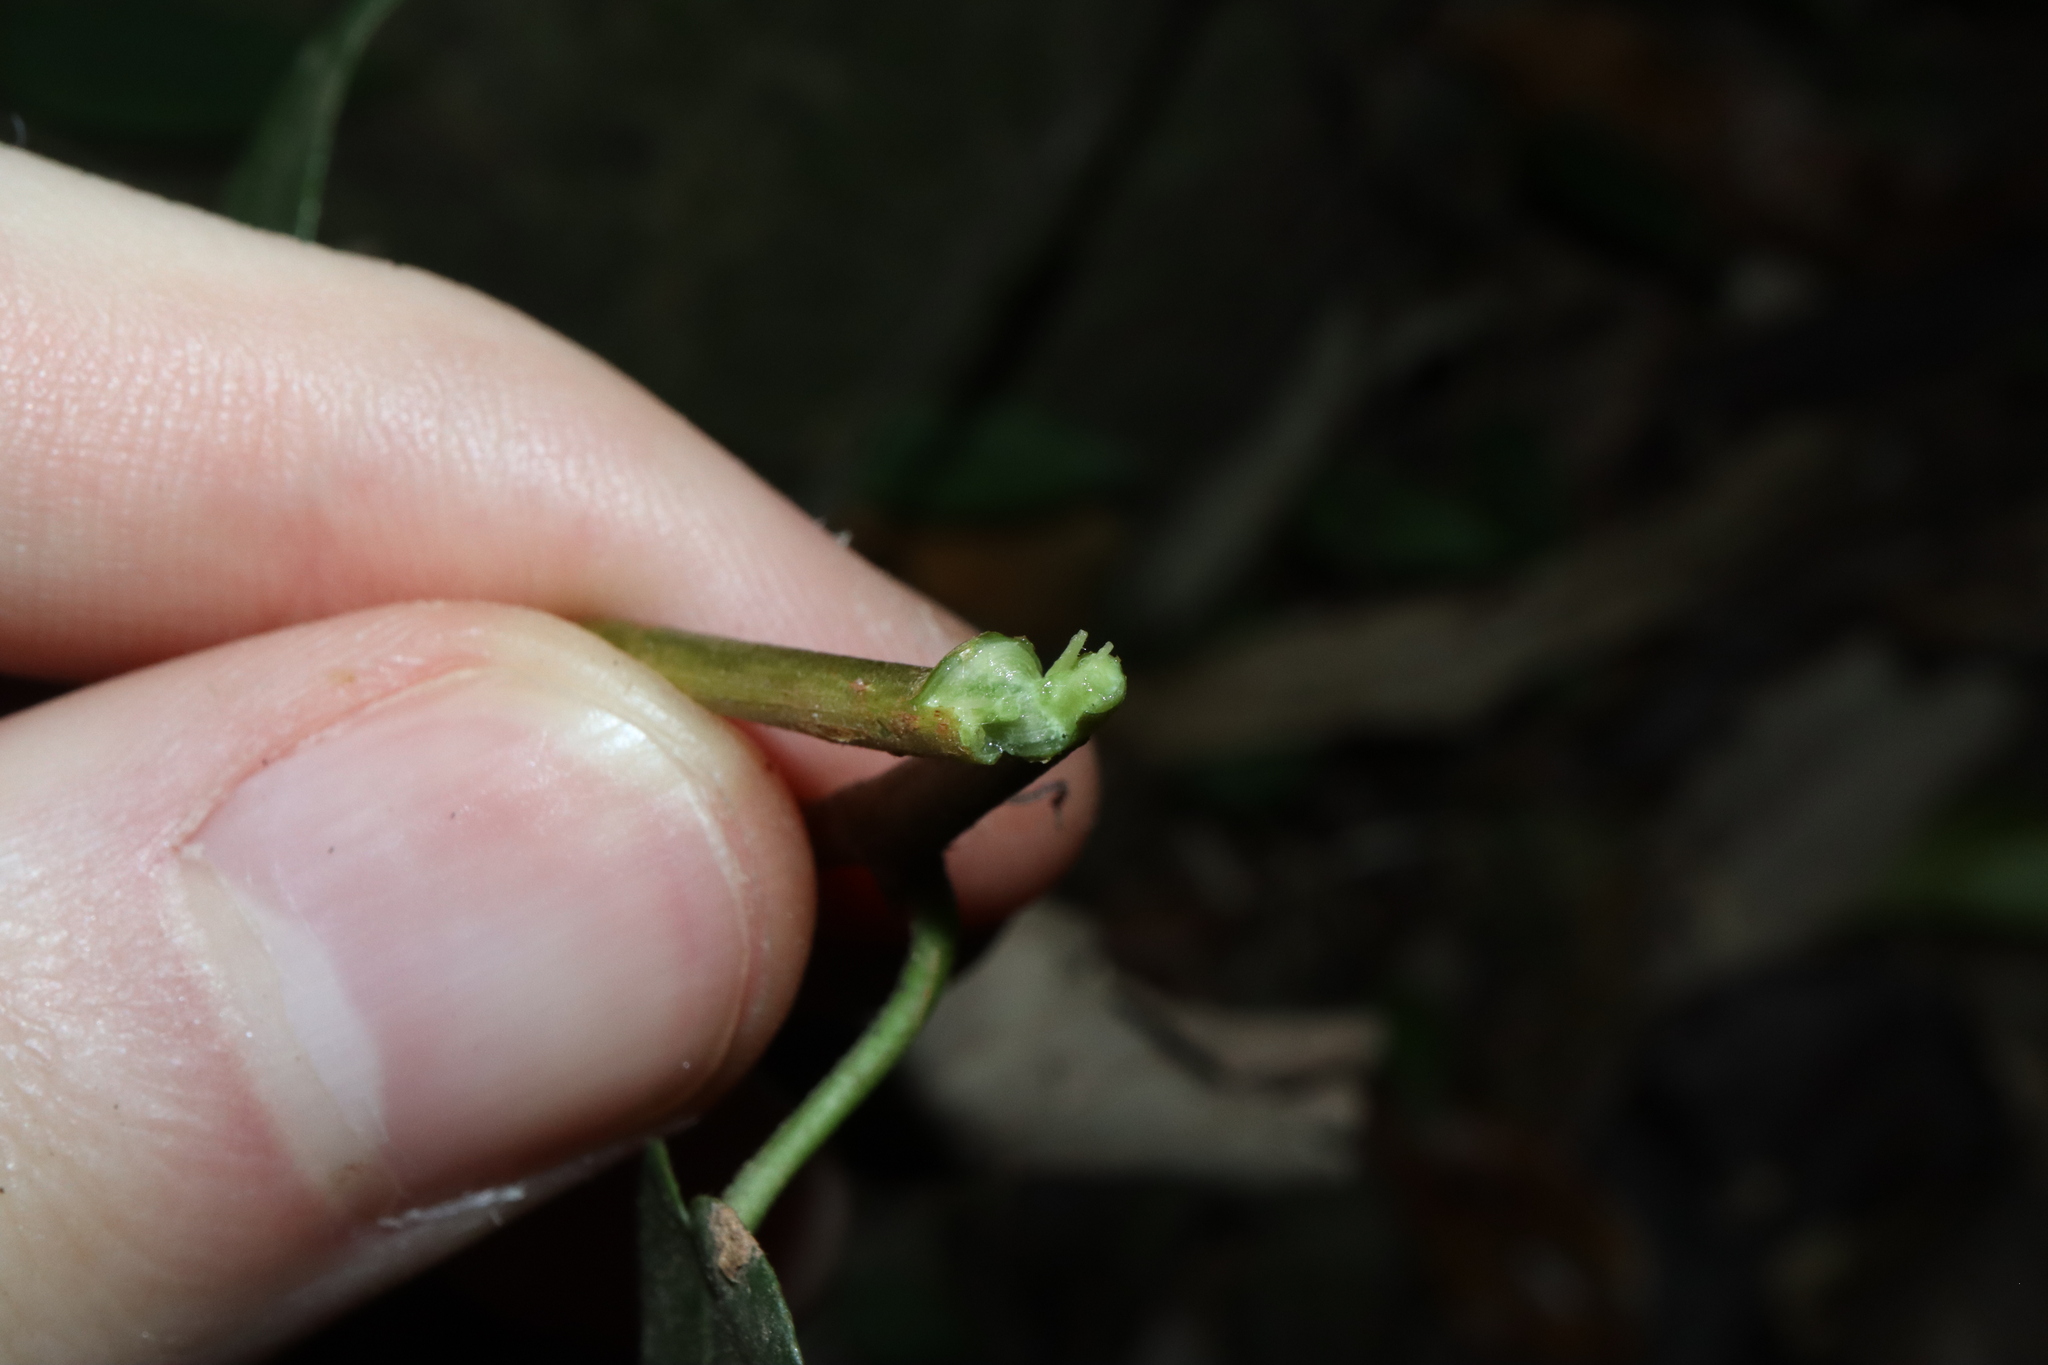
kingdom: Plantae
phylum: Tracheophyta
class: Magnoliopsida
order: Rosales
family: Moraceae
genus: Ficus
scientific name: Ficus pantoniana
